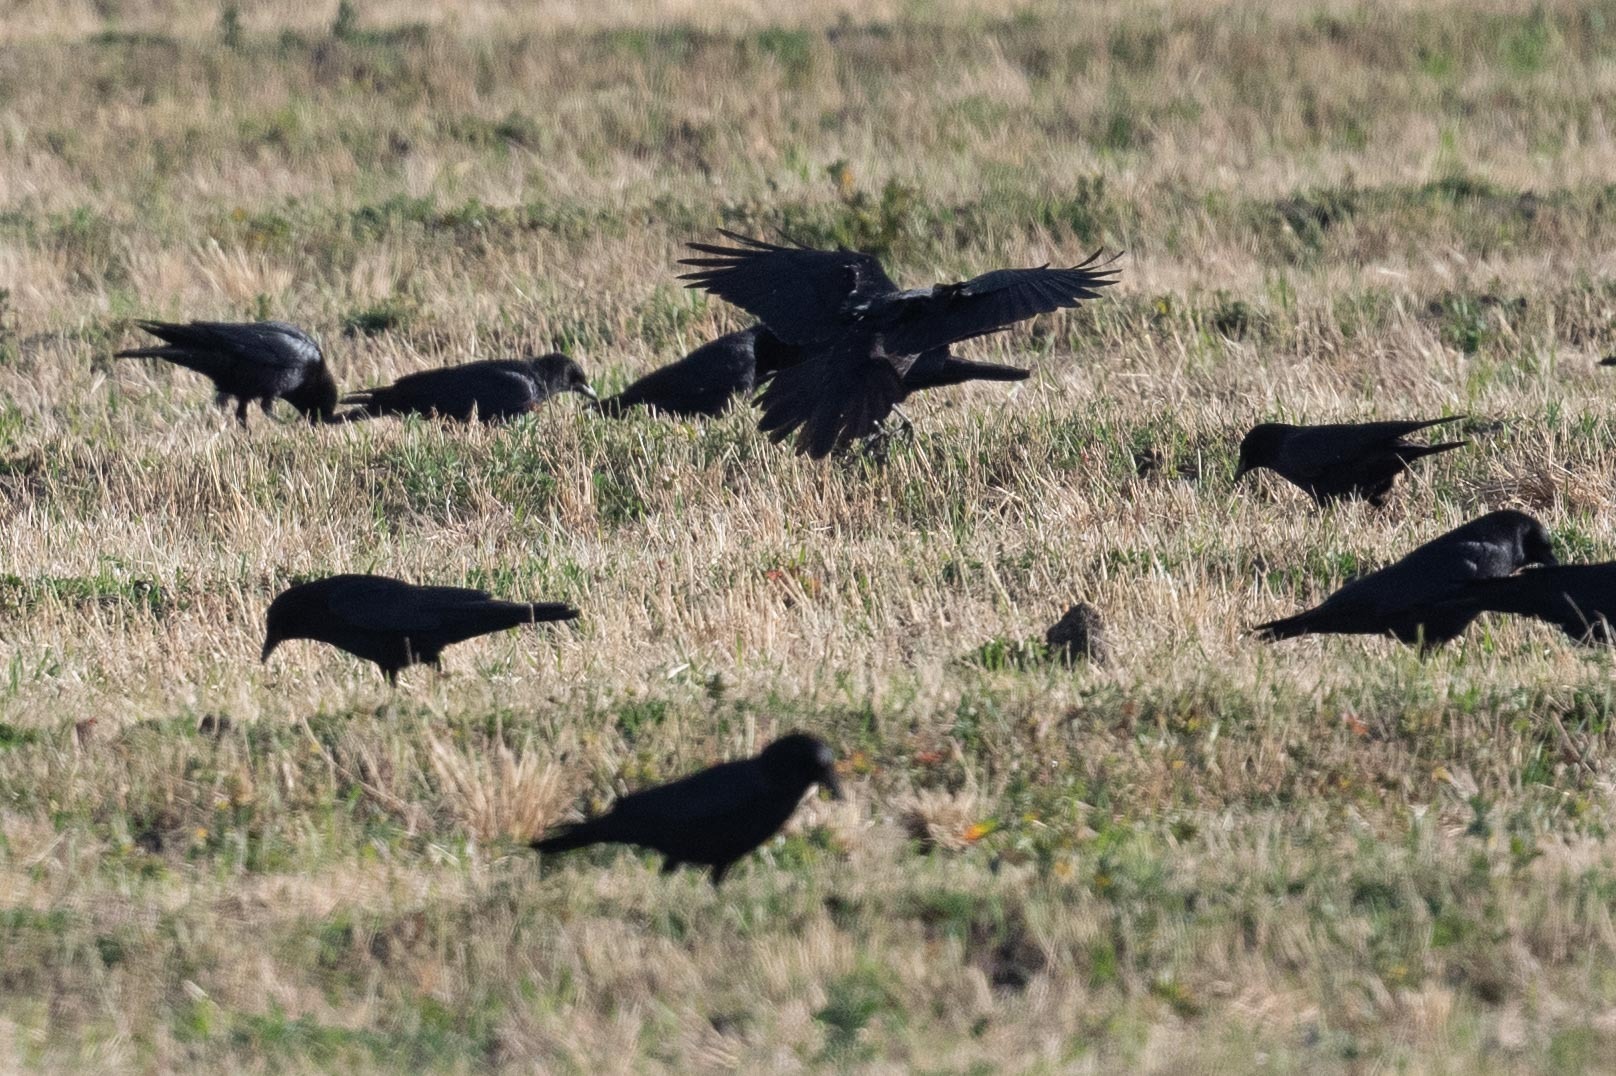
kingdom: Animalia
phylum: Chordata
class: Aves
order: Passeriformes
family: Corvidae
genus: Corvus
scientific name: Corvus brachyrhynchos
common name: American crow
